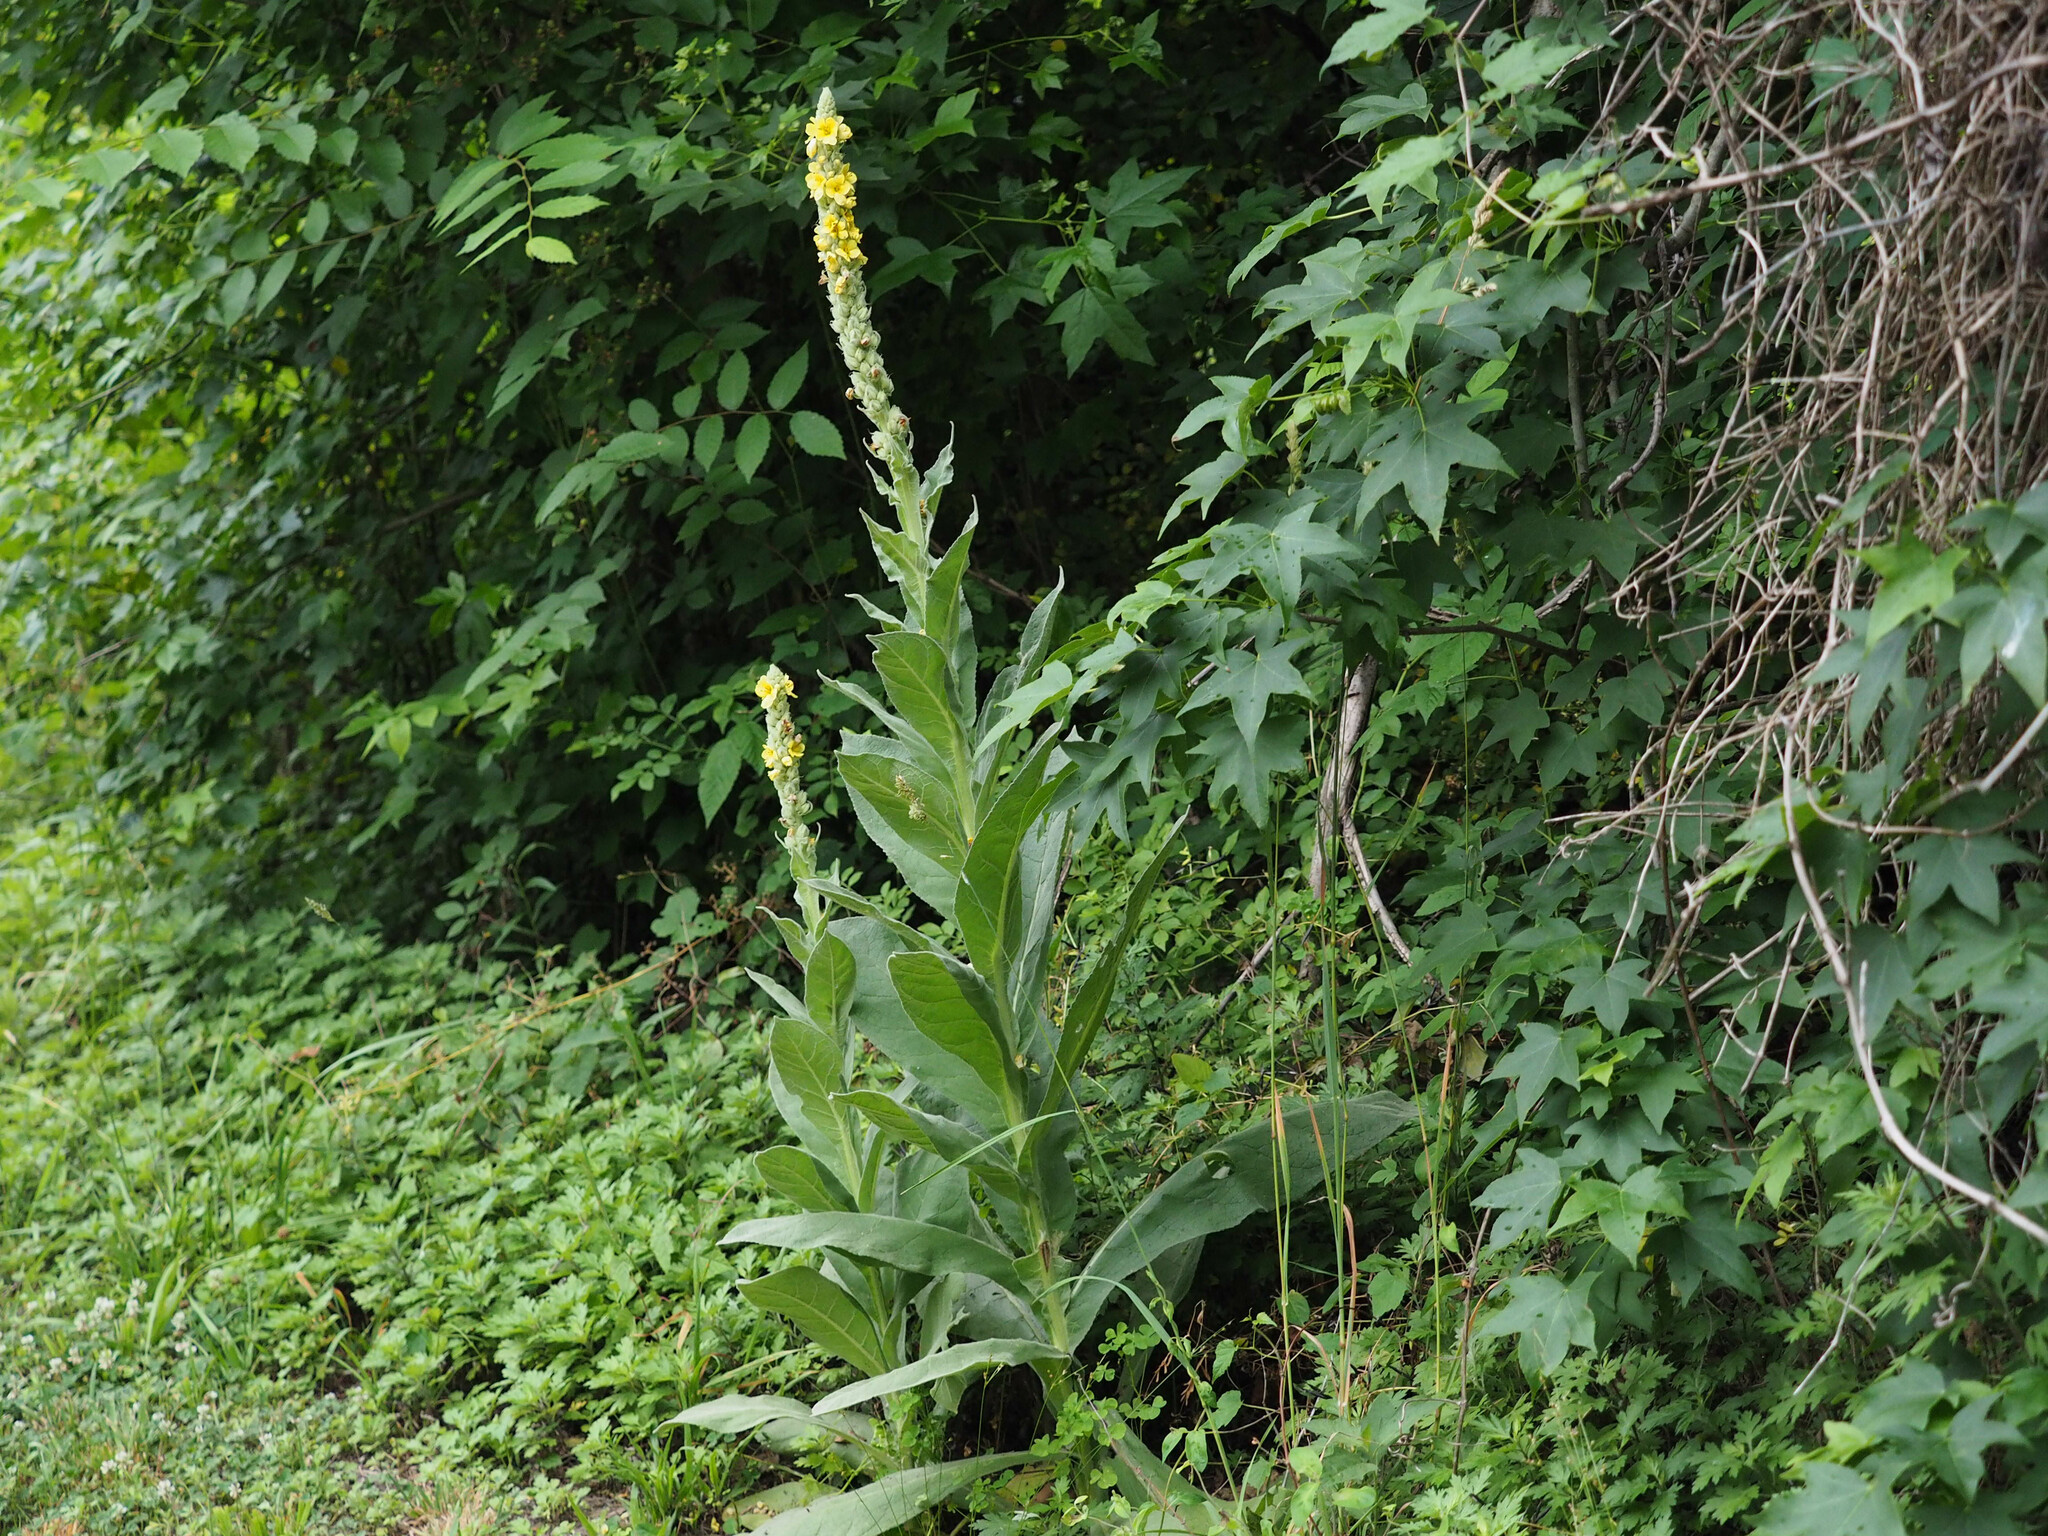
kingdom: Plantae
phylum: Tracheophyta
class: Magnoliopsida
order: Lamiales
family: Scrophulariaceae
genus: Verbascum
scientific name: Verbascum thapsus
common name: Common mullein
